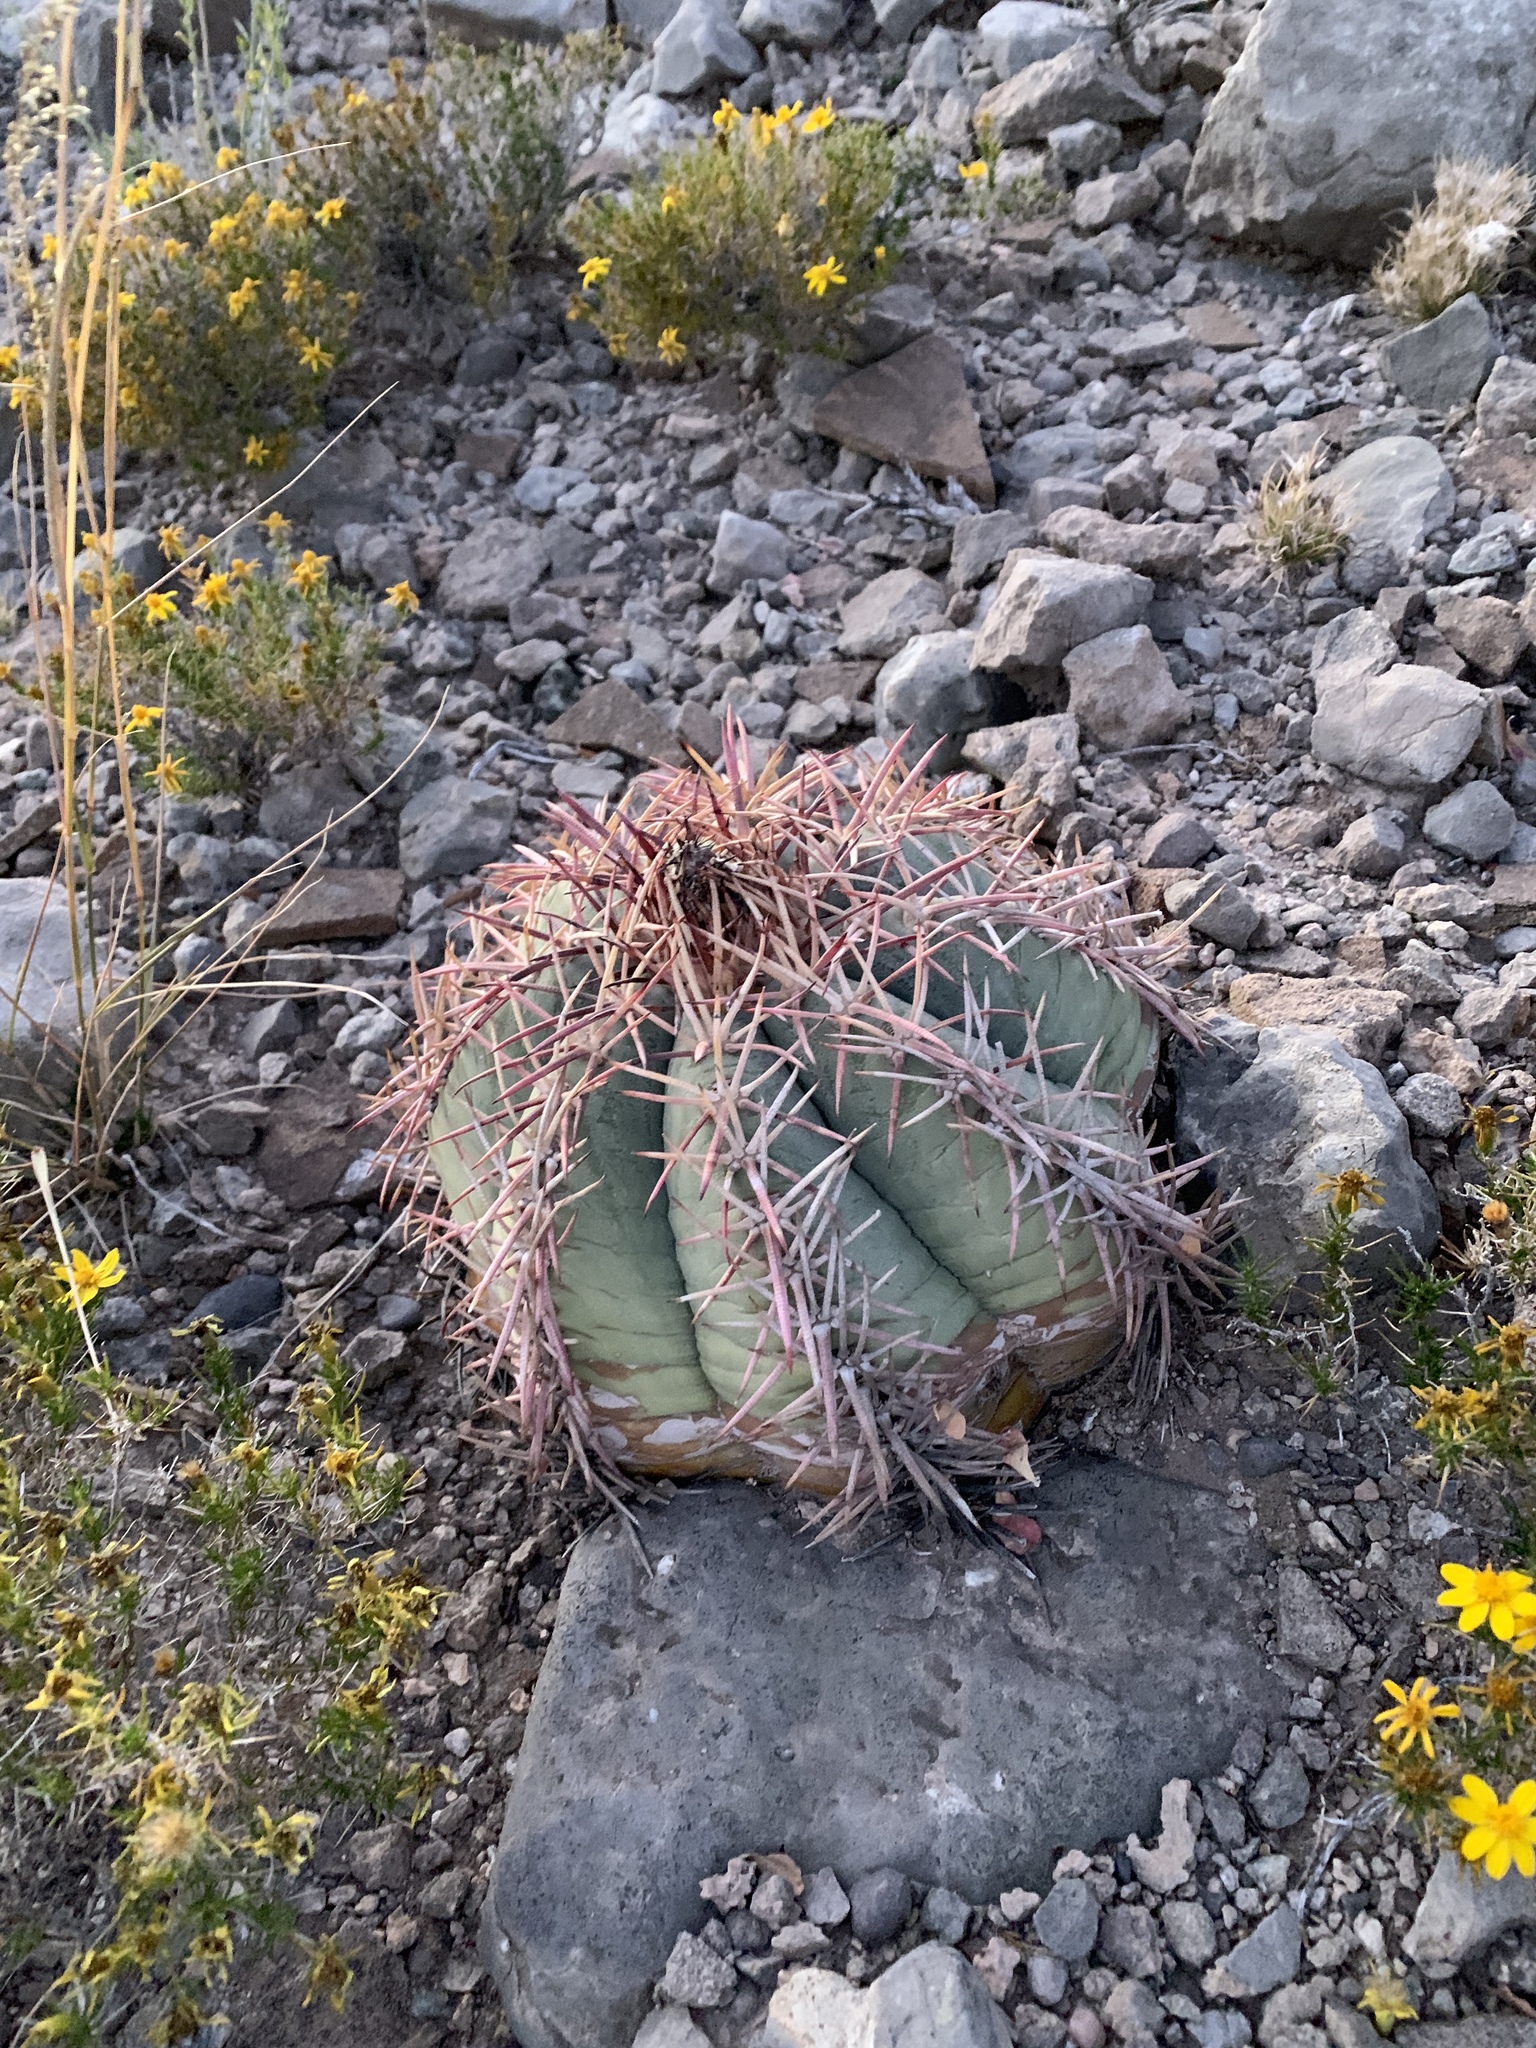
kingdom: Plantae
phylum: Tracheophyta
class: Magnoliopsida
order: Caryophyllales
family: Cactaceae
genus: Echinocactus
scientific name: Echinocactus horizonthalonius
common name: Devilshead
